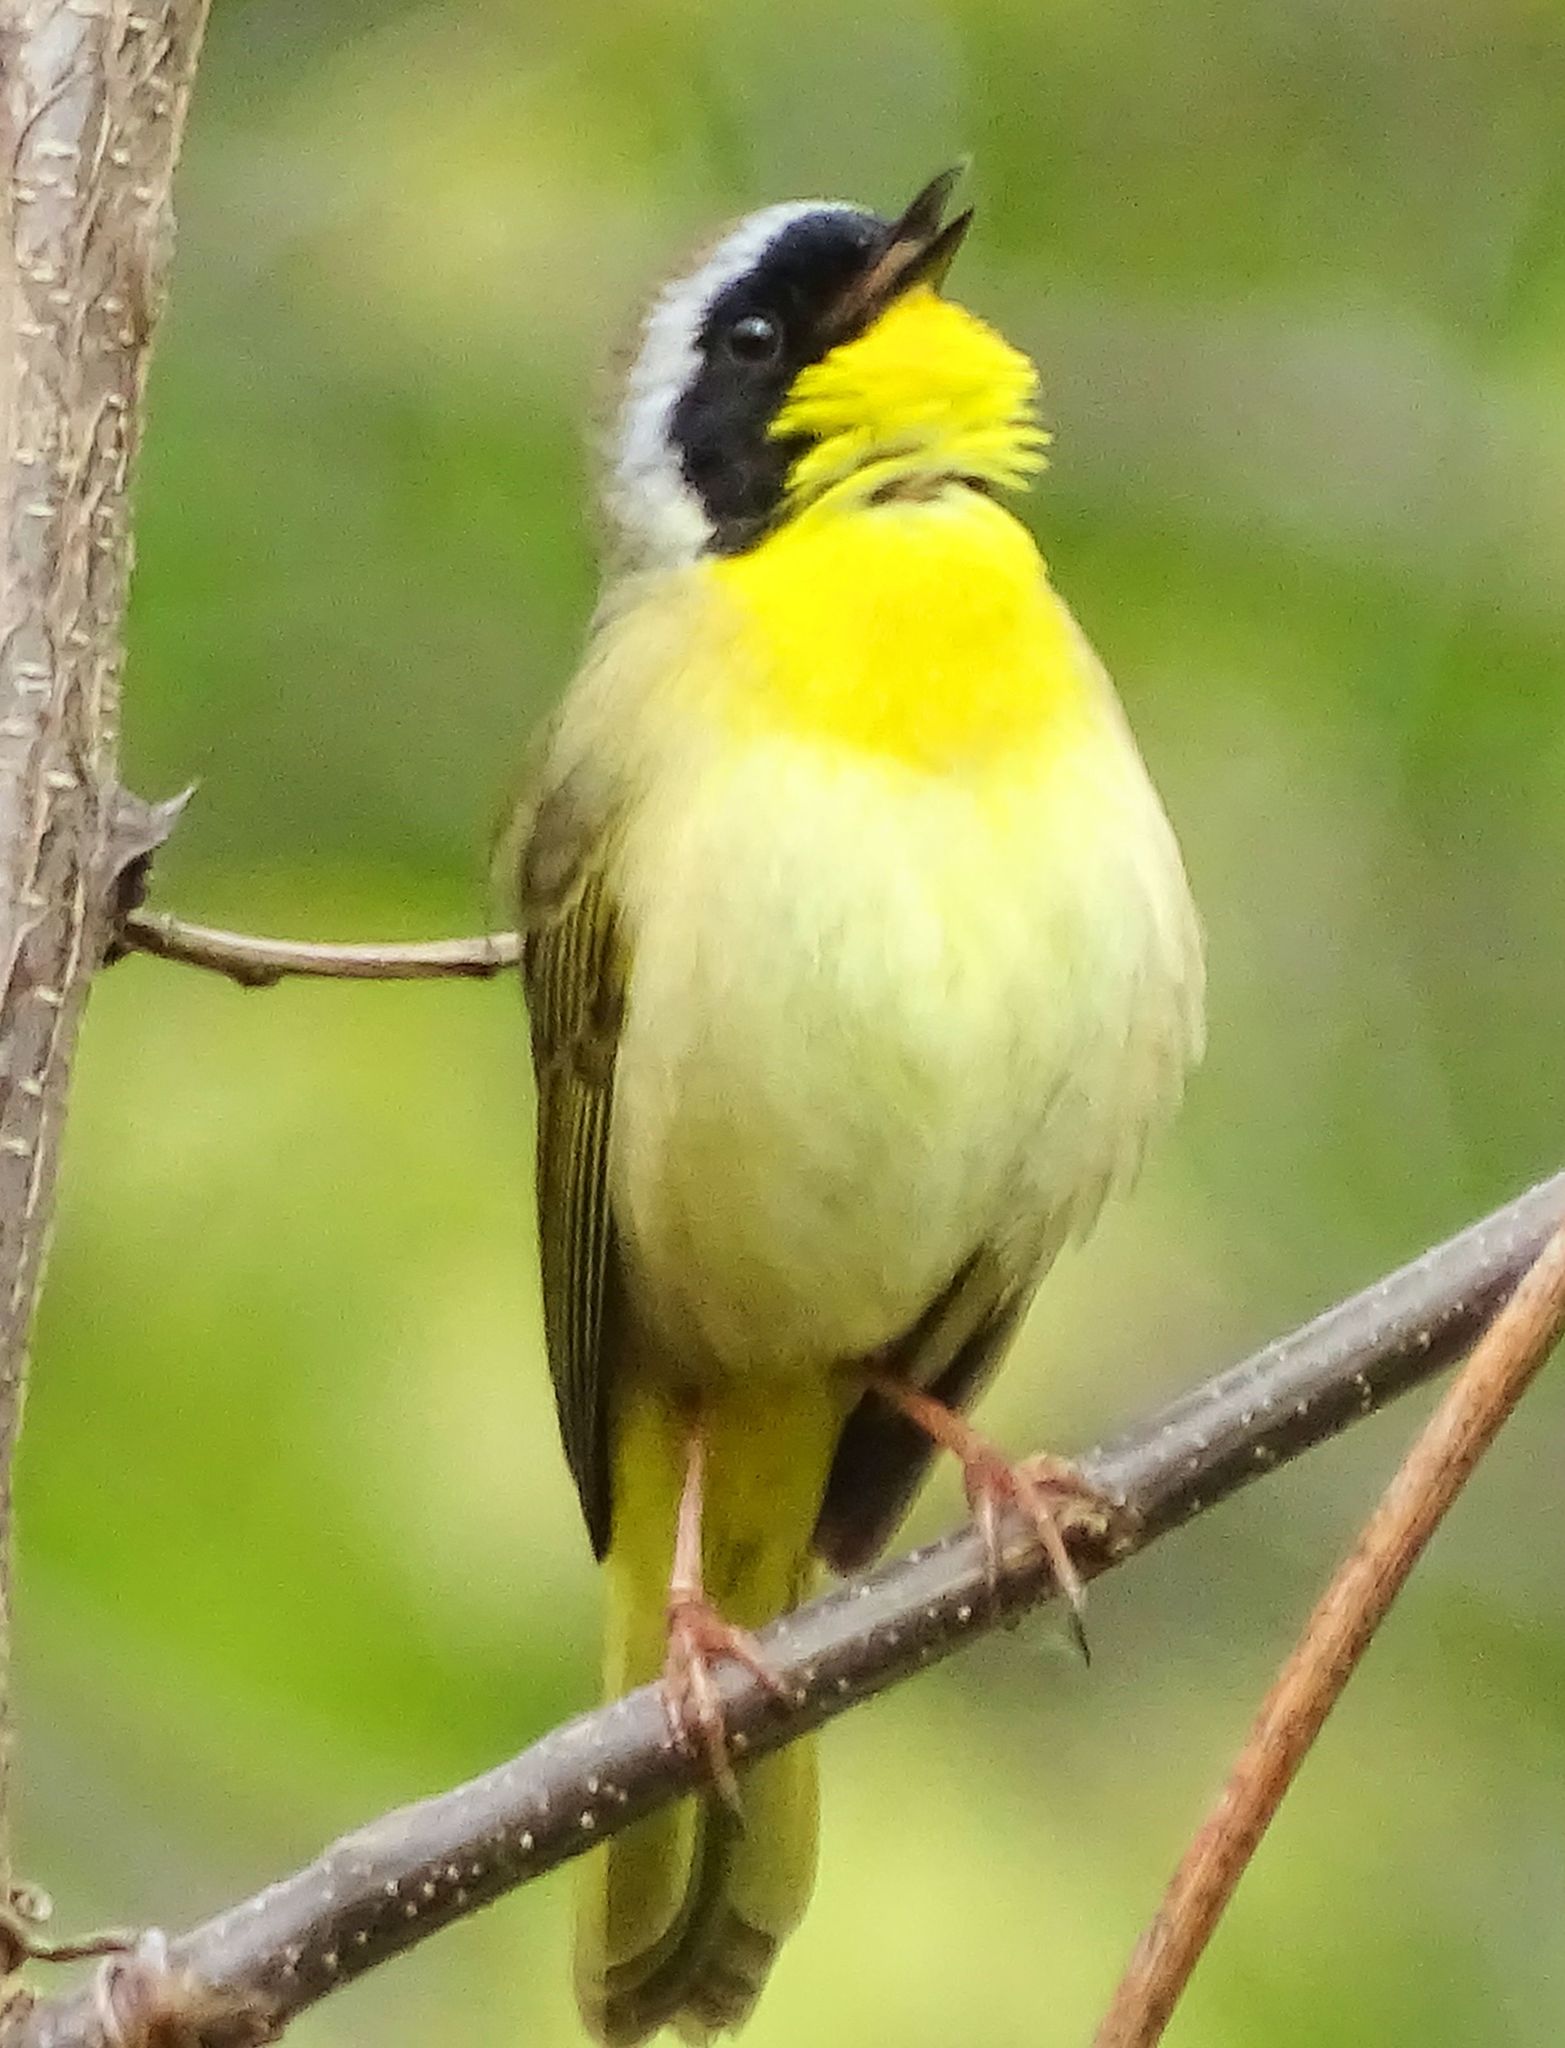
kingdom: Animalia
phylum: Chordata
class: Aves
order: Passeriformes
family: Parulidae
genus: Geothlypis
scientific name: Geothlypis trichas
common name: Common yellowthroat
